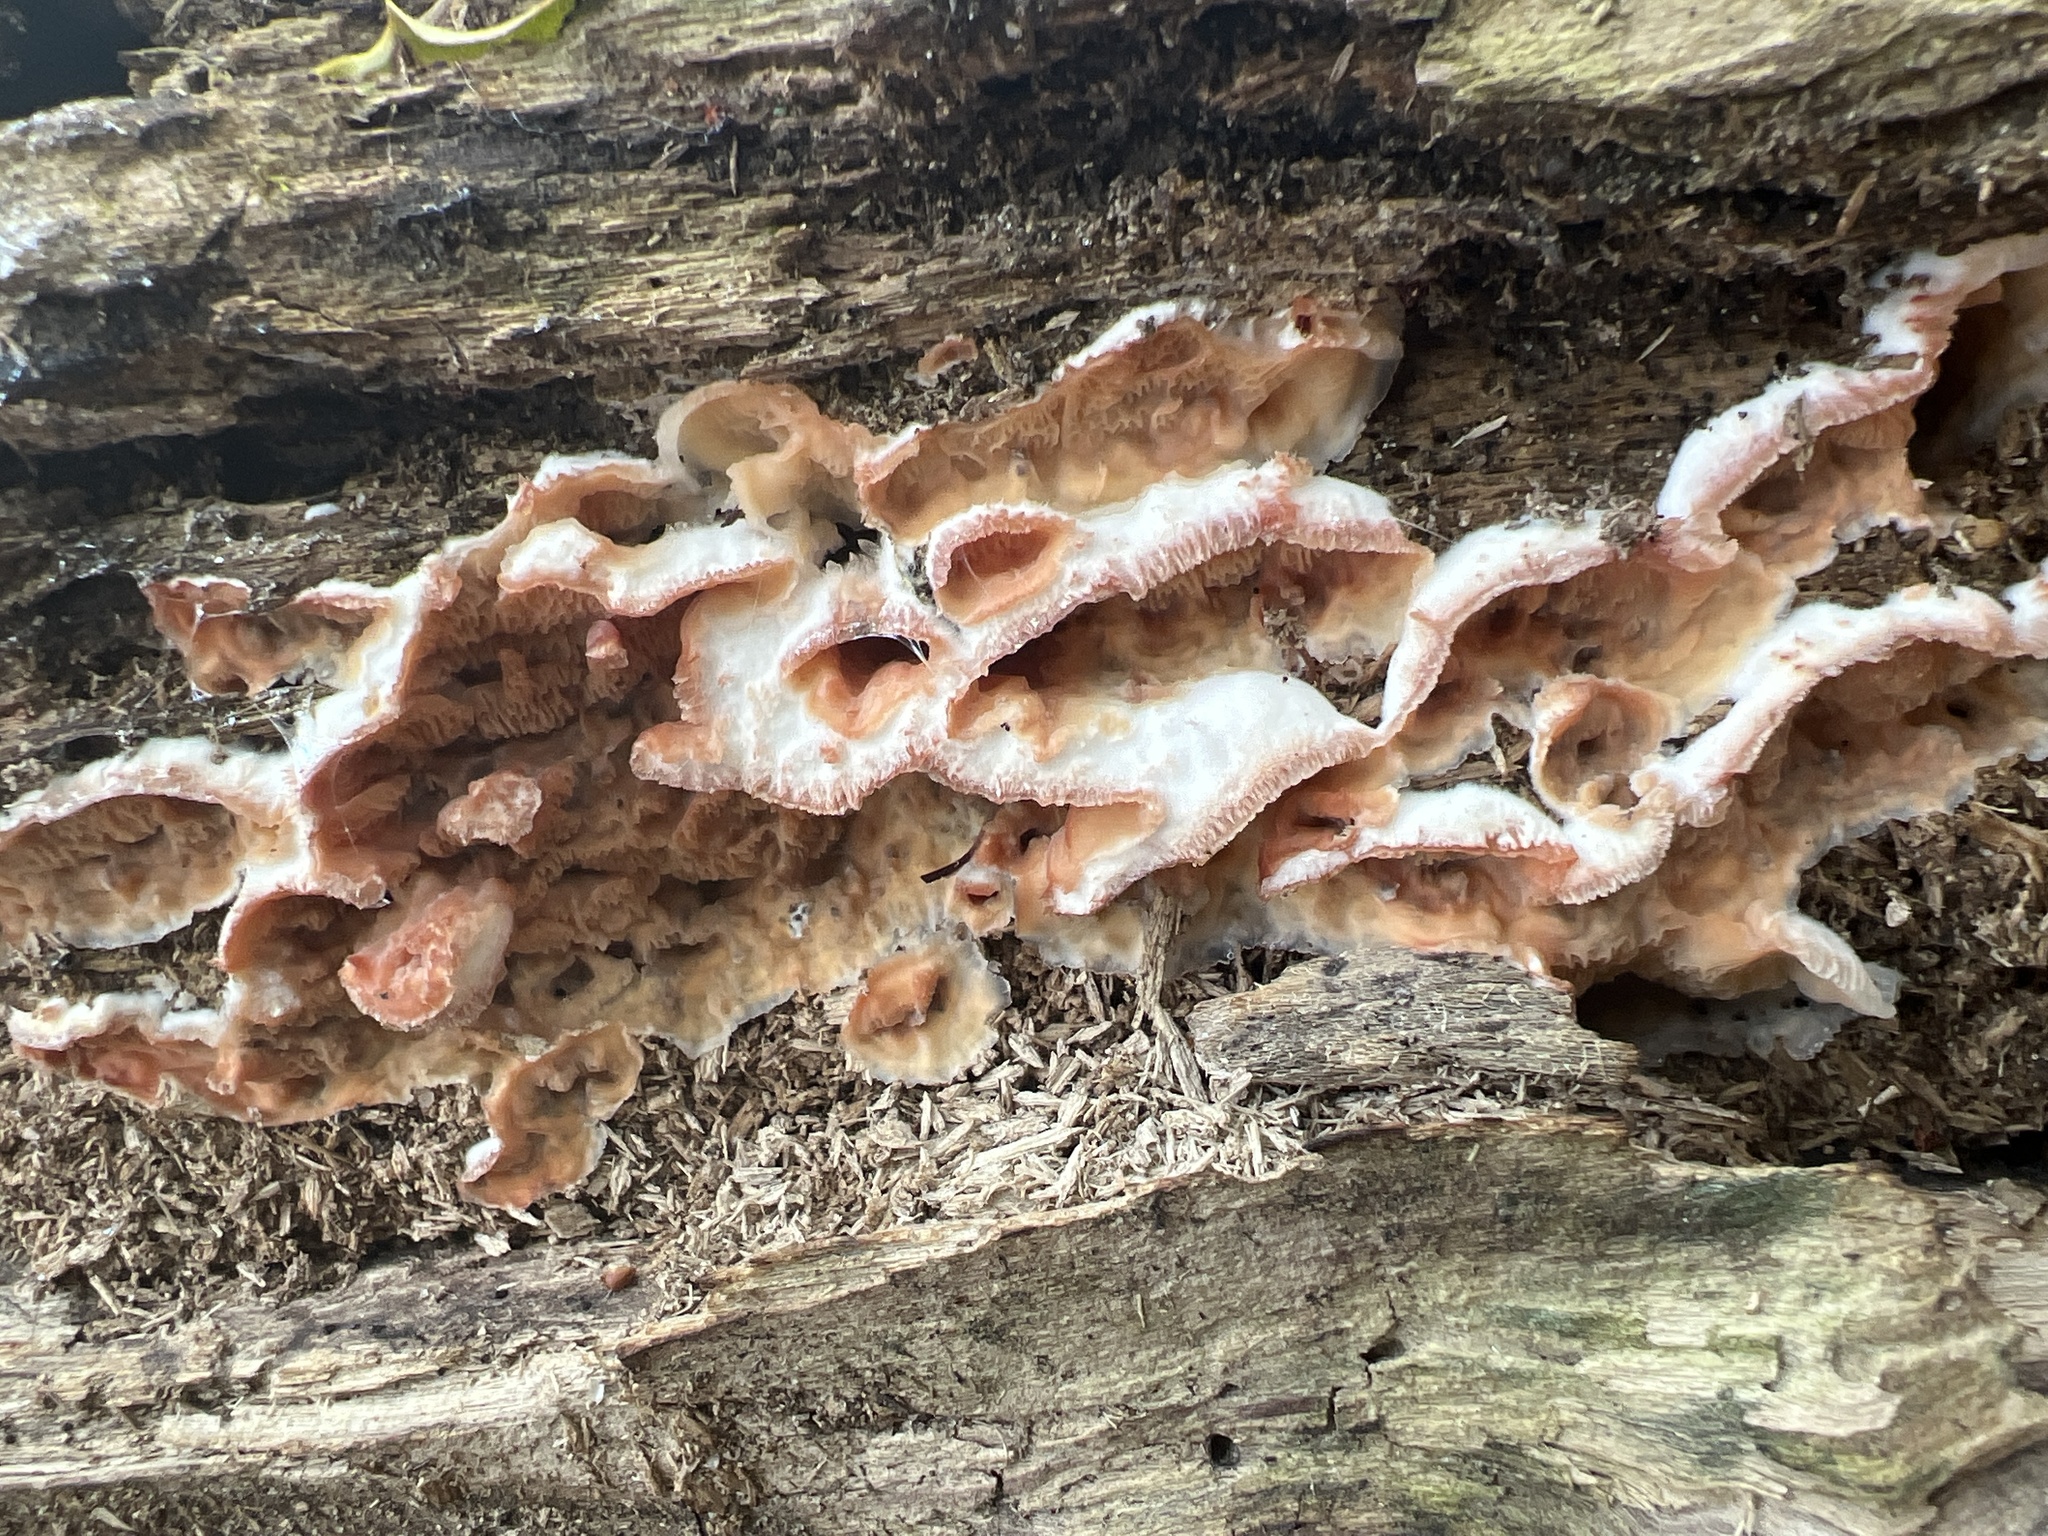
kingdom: Fungi
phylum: Basidiomycota
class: Agaricomycetes
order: Polyporales
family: Meruliaceae
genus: Phlebia
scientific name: Phlebia tremellosa
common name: Jelly rot
